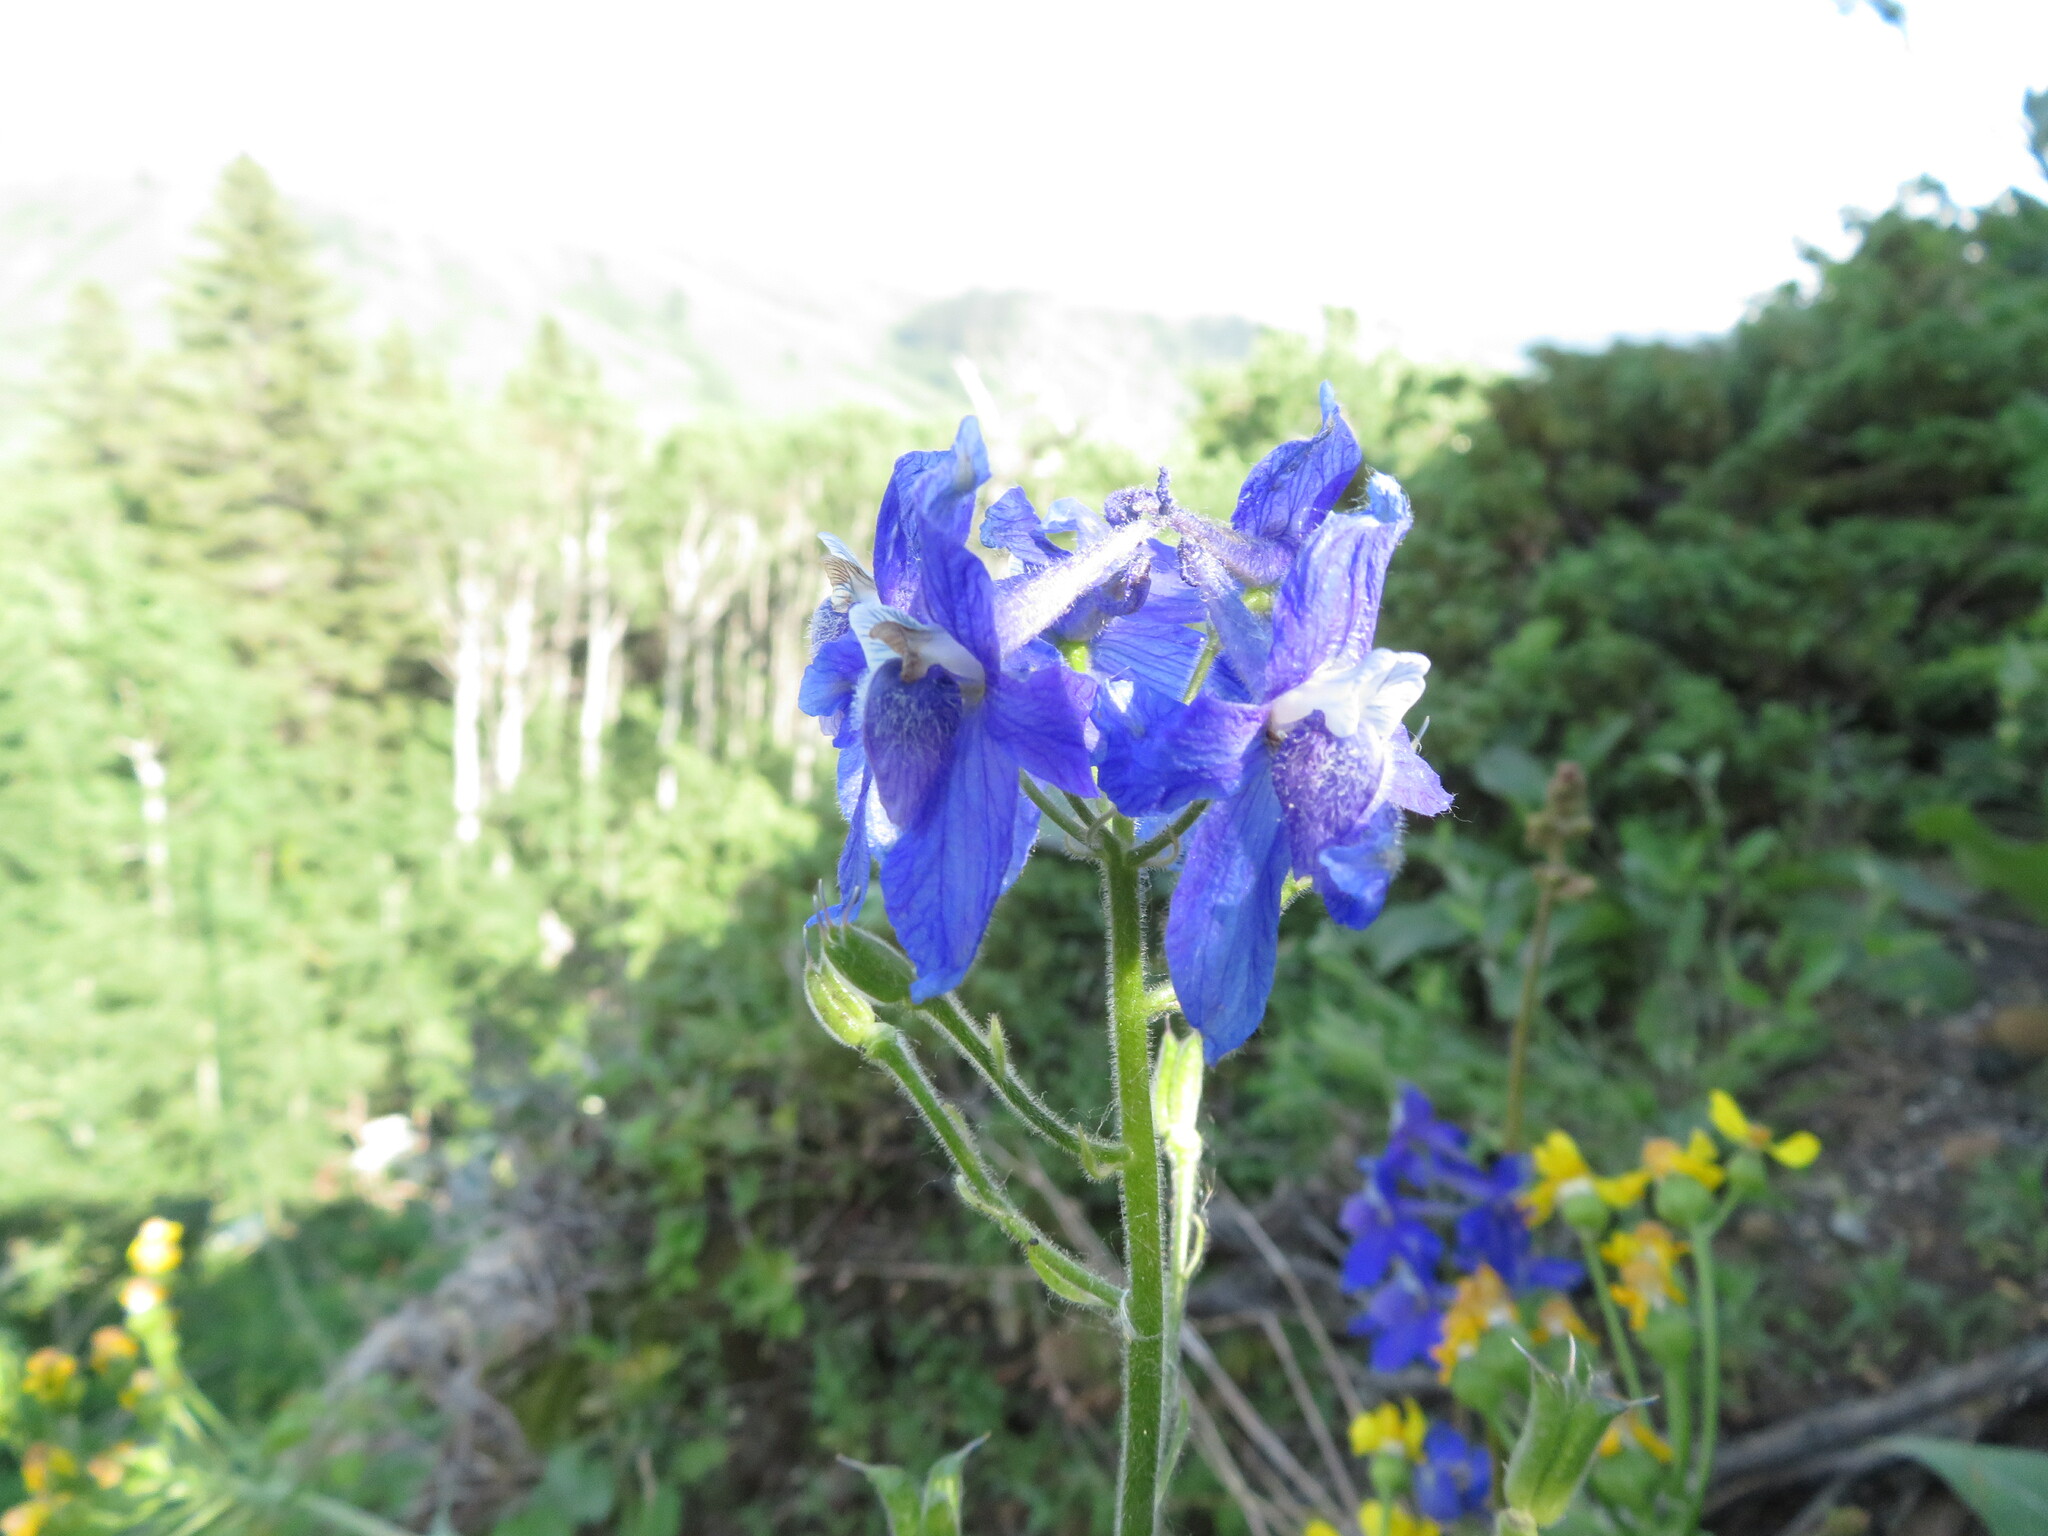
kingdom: Plantae
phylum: Tracheophyta
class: Magnoliopsida
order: Ranunculales
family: Ranunculaceae
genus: Delphinium
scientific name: Delphinium bicolor
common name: Low larkspur
